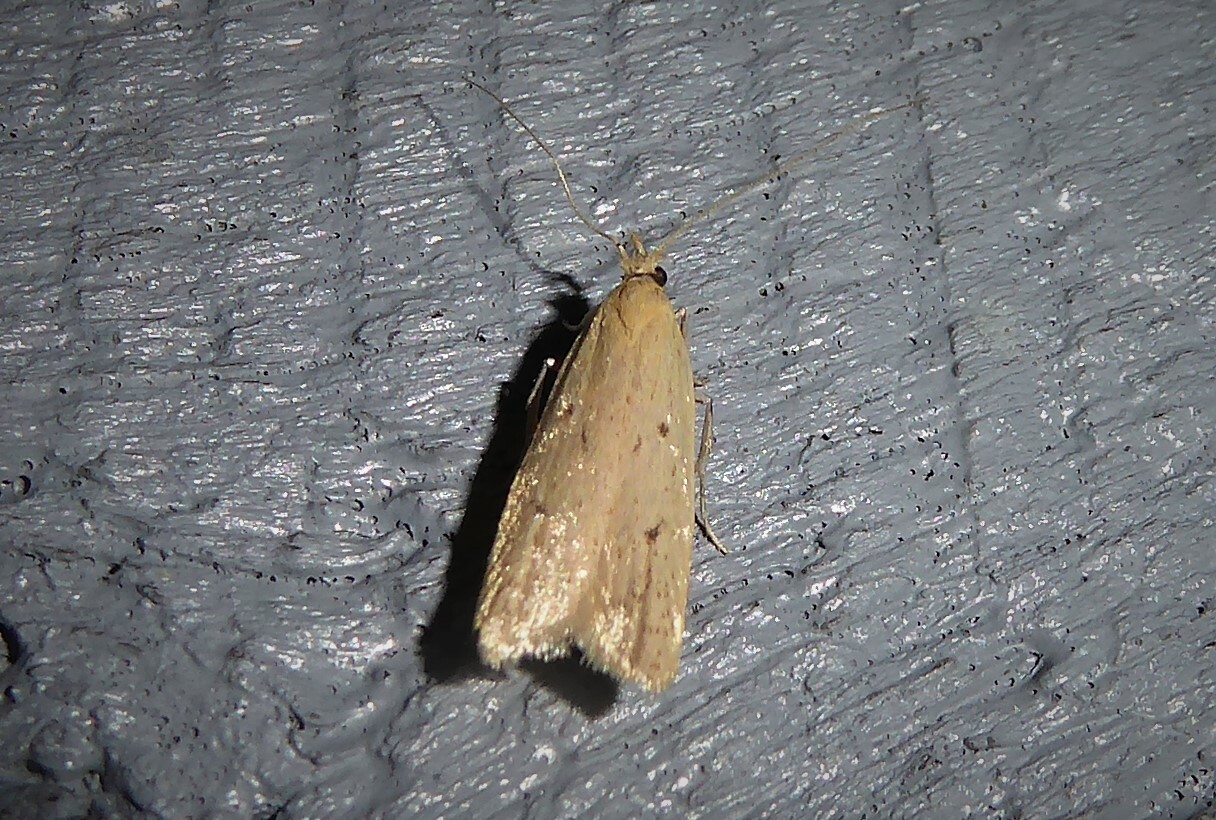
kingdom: Animalia
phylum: Arthropoda
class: Insecta
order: Lepidoptera
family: Oecophoridae
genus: Gymnobathra
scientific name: Gymnobathra sarcoxantha
